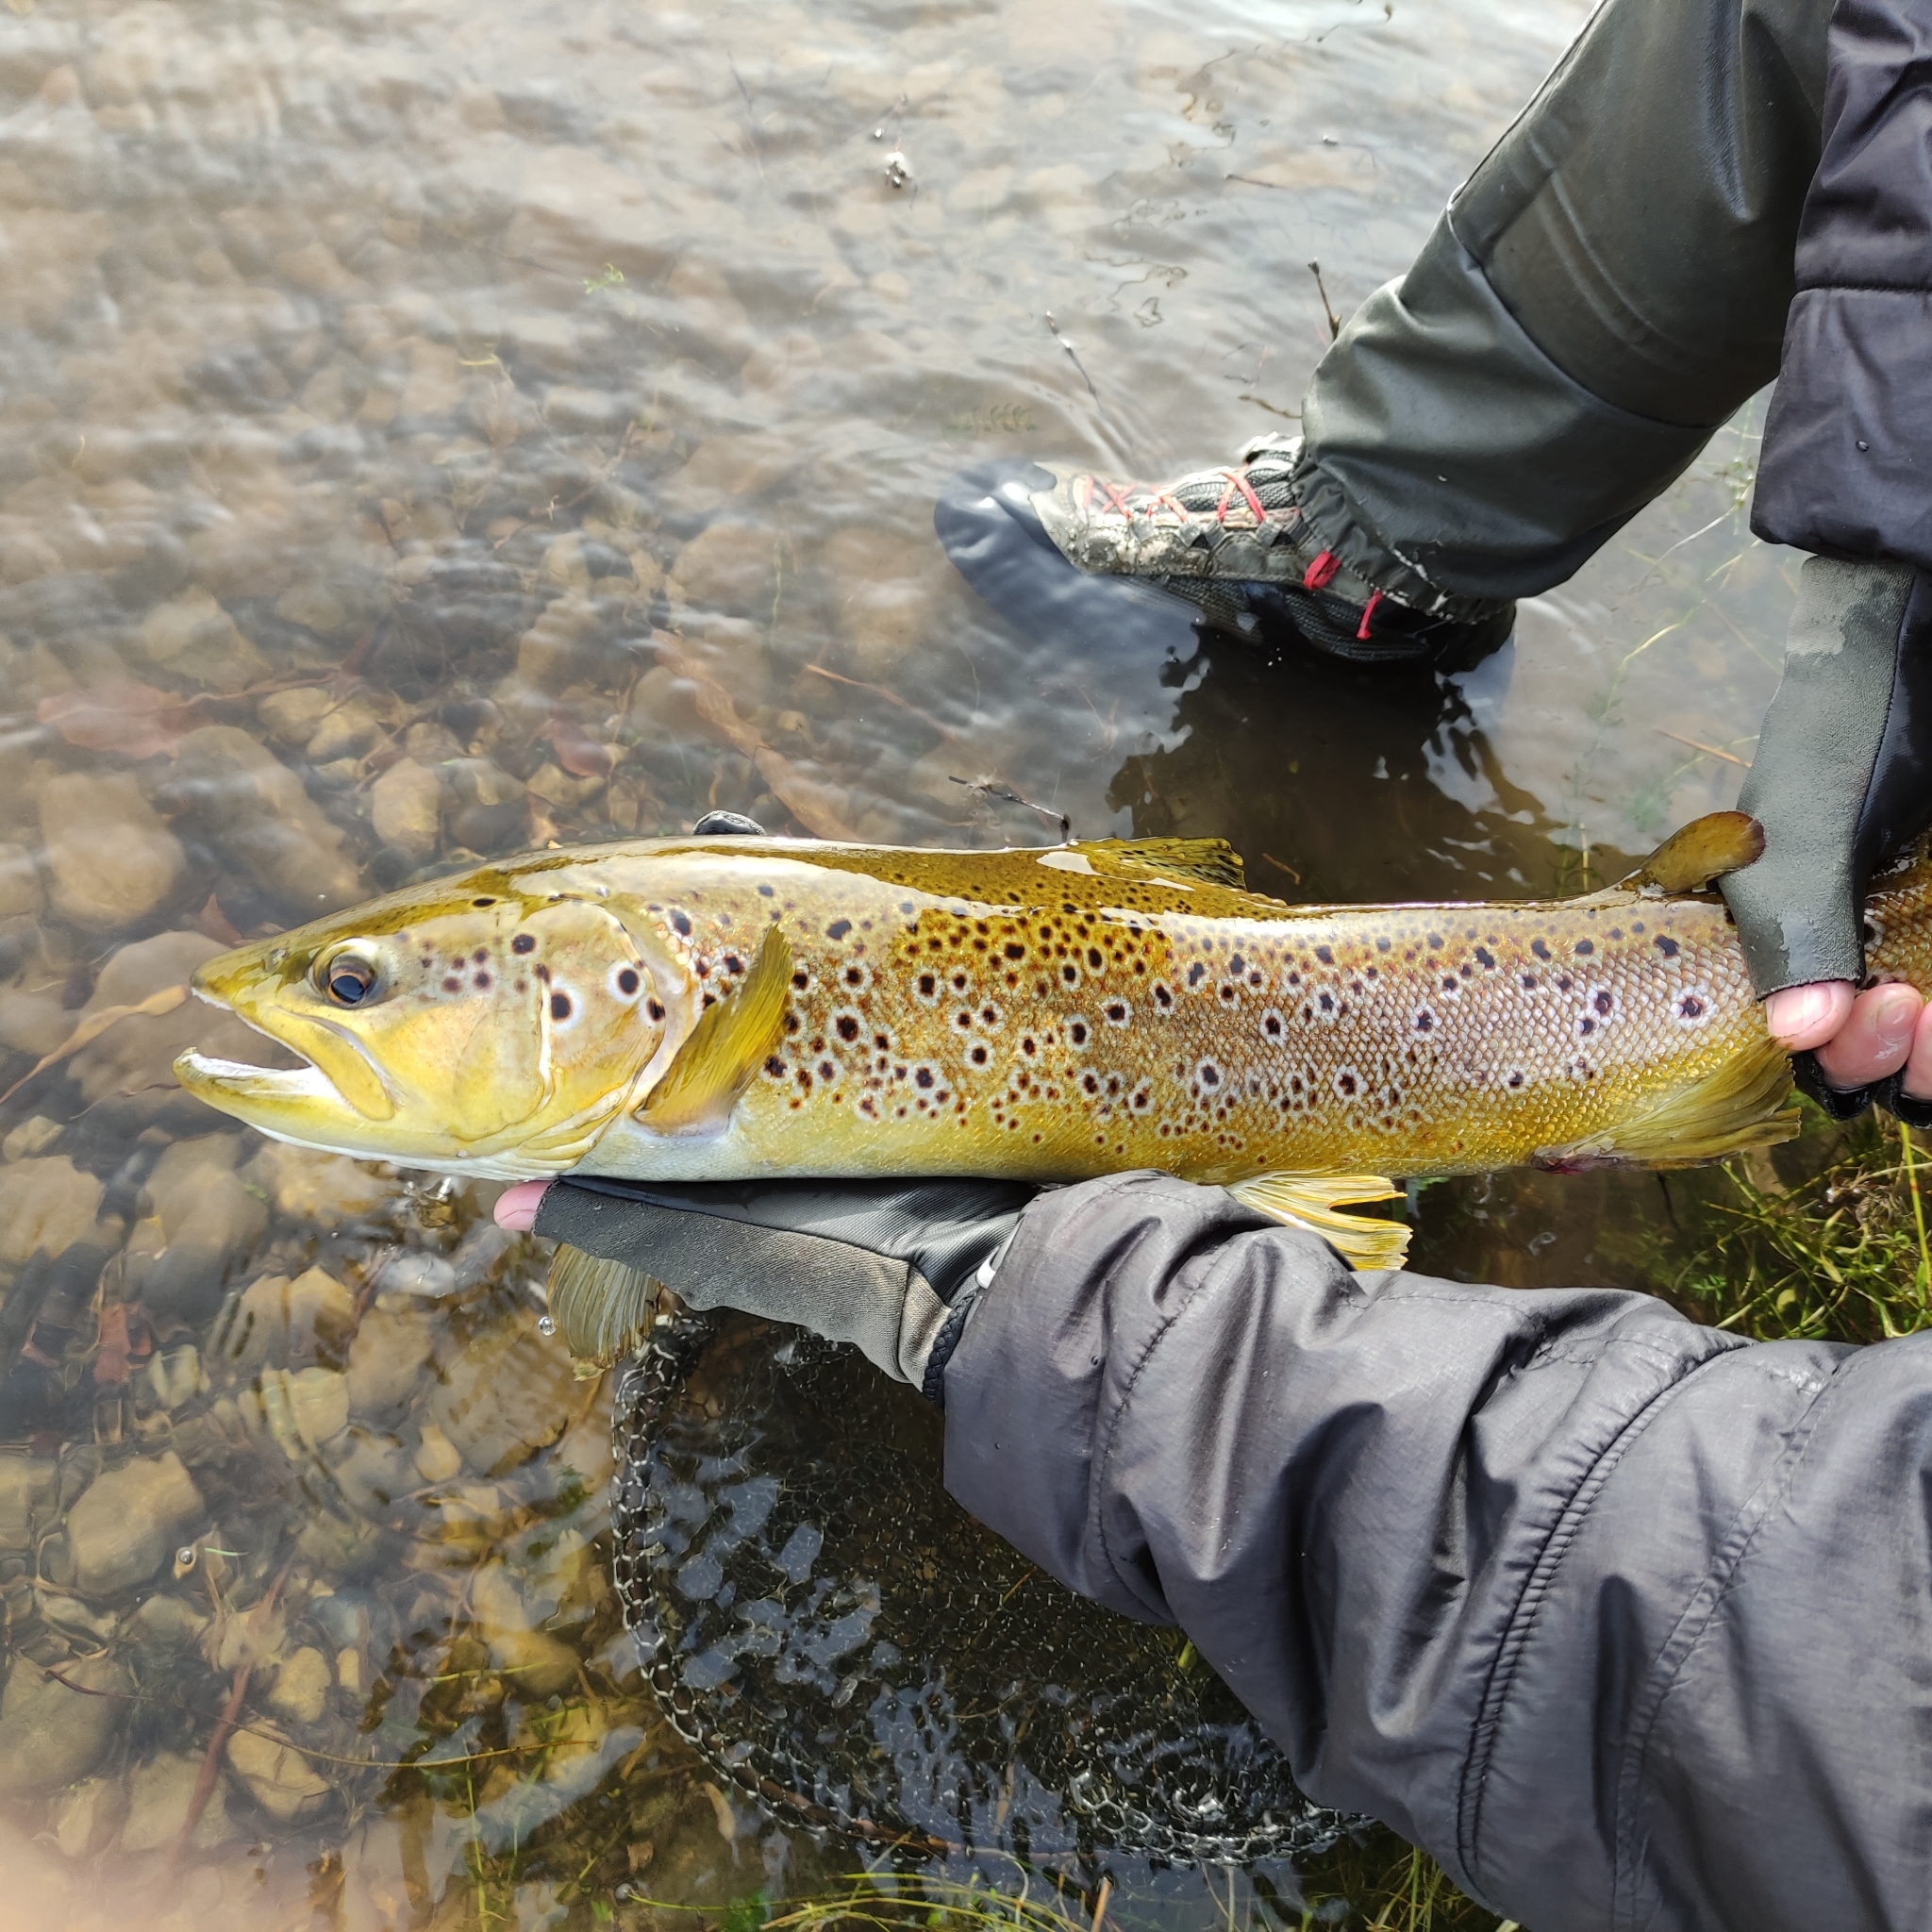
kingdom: Animalia
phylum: Chordata
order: Salmoniformes
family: Salmonidae
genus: Salmo
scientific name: Salmo trutta
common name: Brown trout
